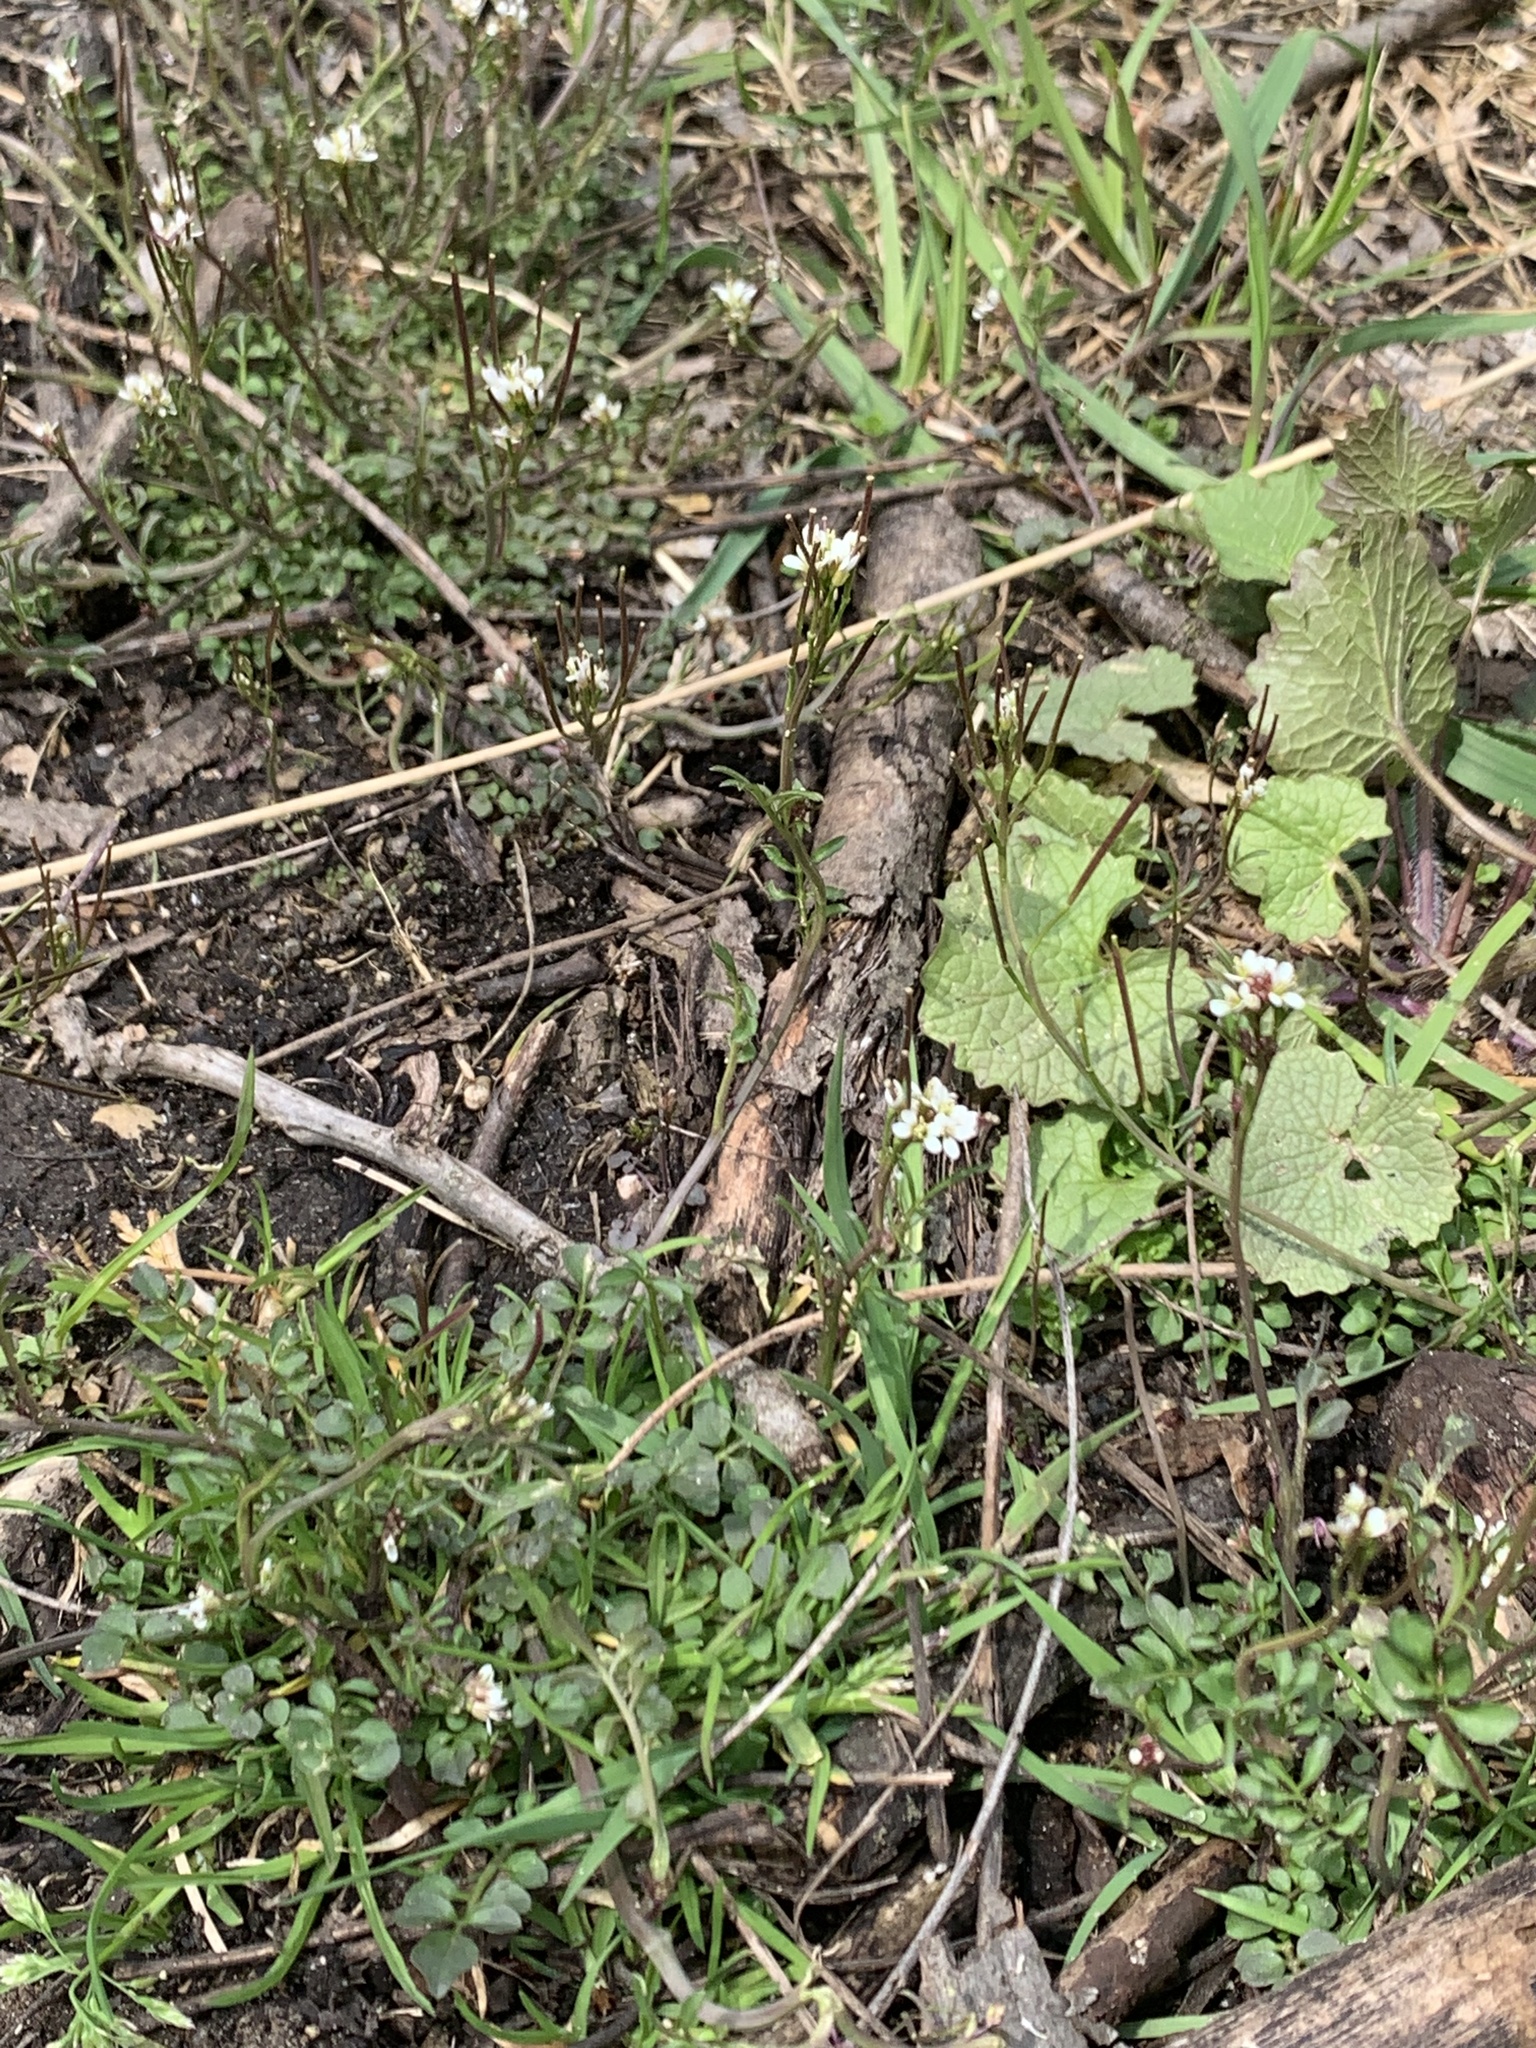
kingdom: Plantae
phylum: Tracheophyta
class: Magnoliopsida
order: Brassicales
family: Brassicaceae
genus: Cardamine
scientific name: Cardamine hirsuta
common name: Hairy bittercress
